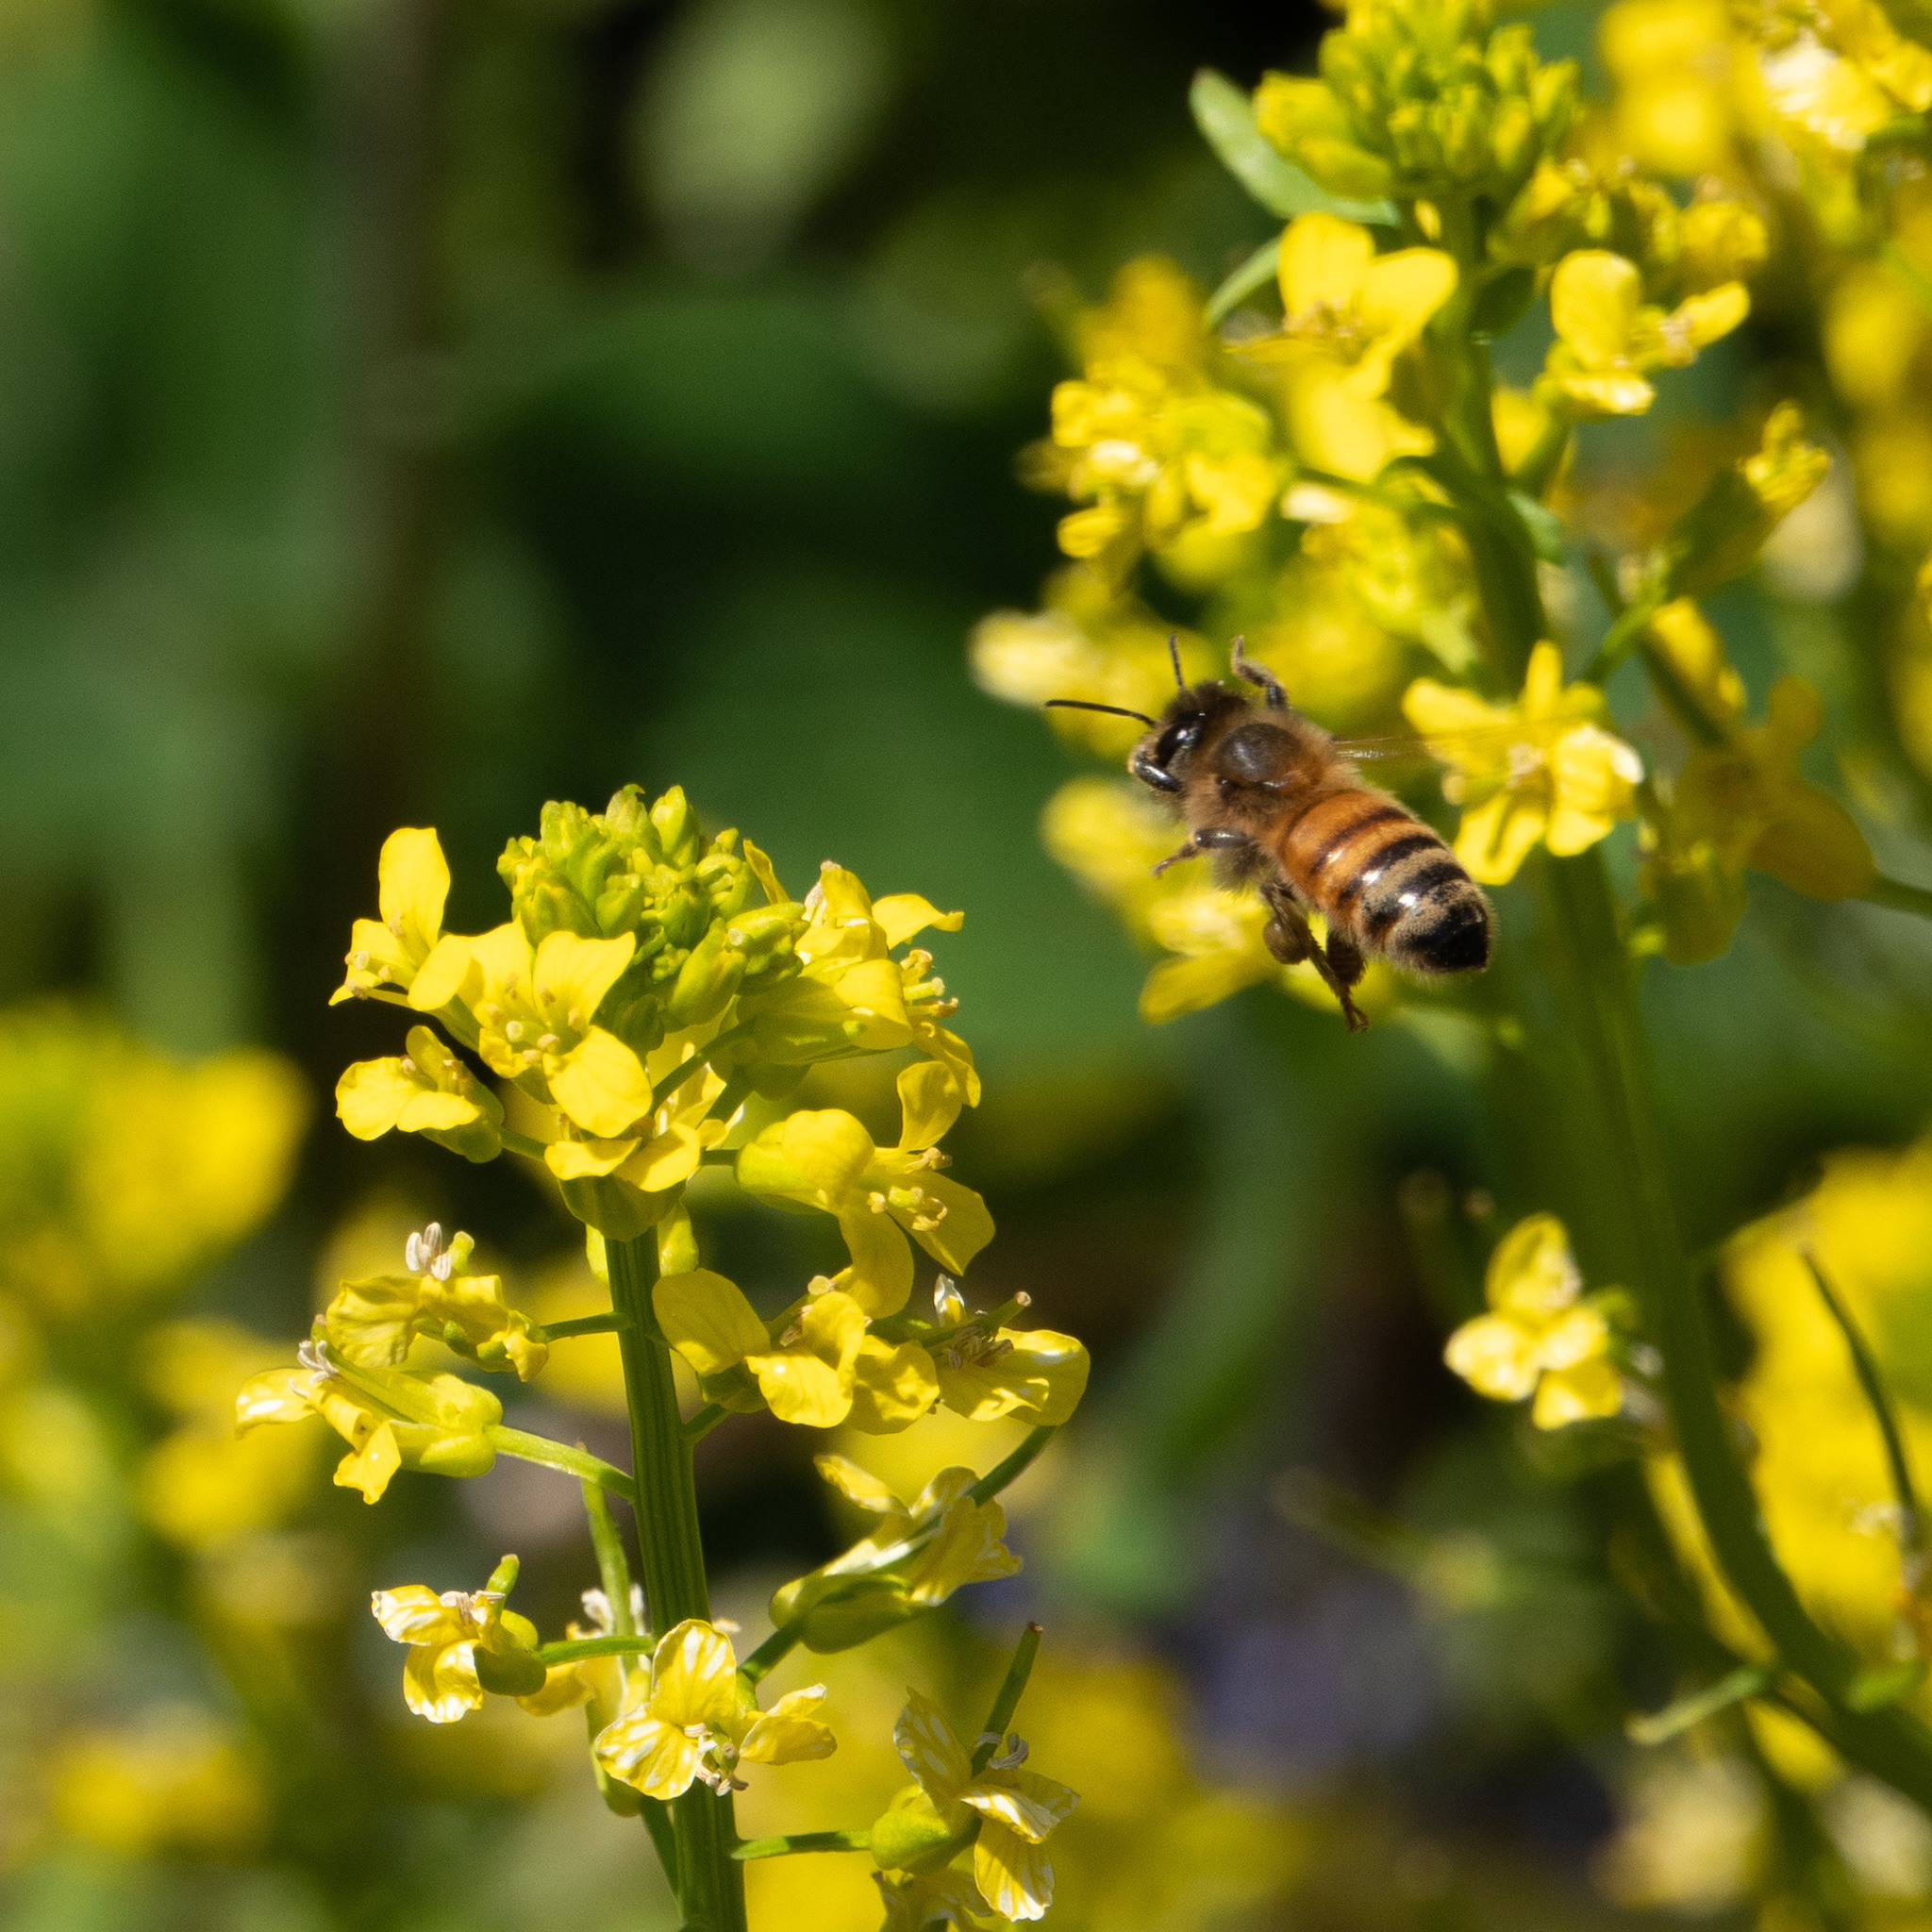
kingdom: Animalia
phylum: Arthropoda
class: Insecta
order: Hymenoptera
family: Apidae
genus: Apis
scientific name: Apis mellifera
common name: Honey bee
